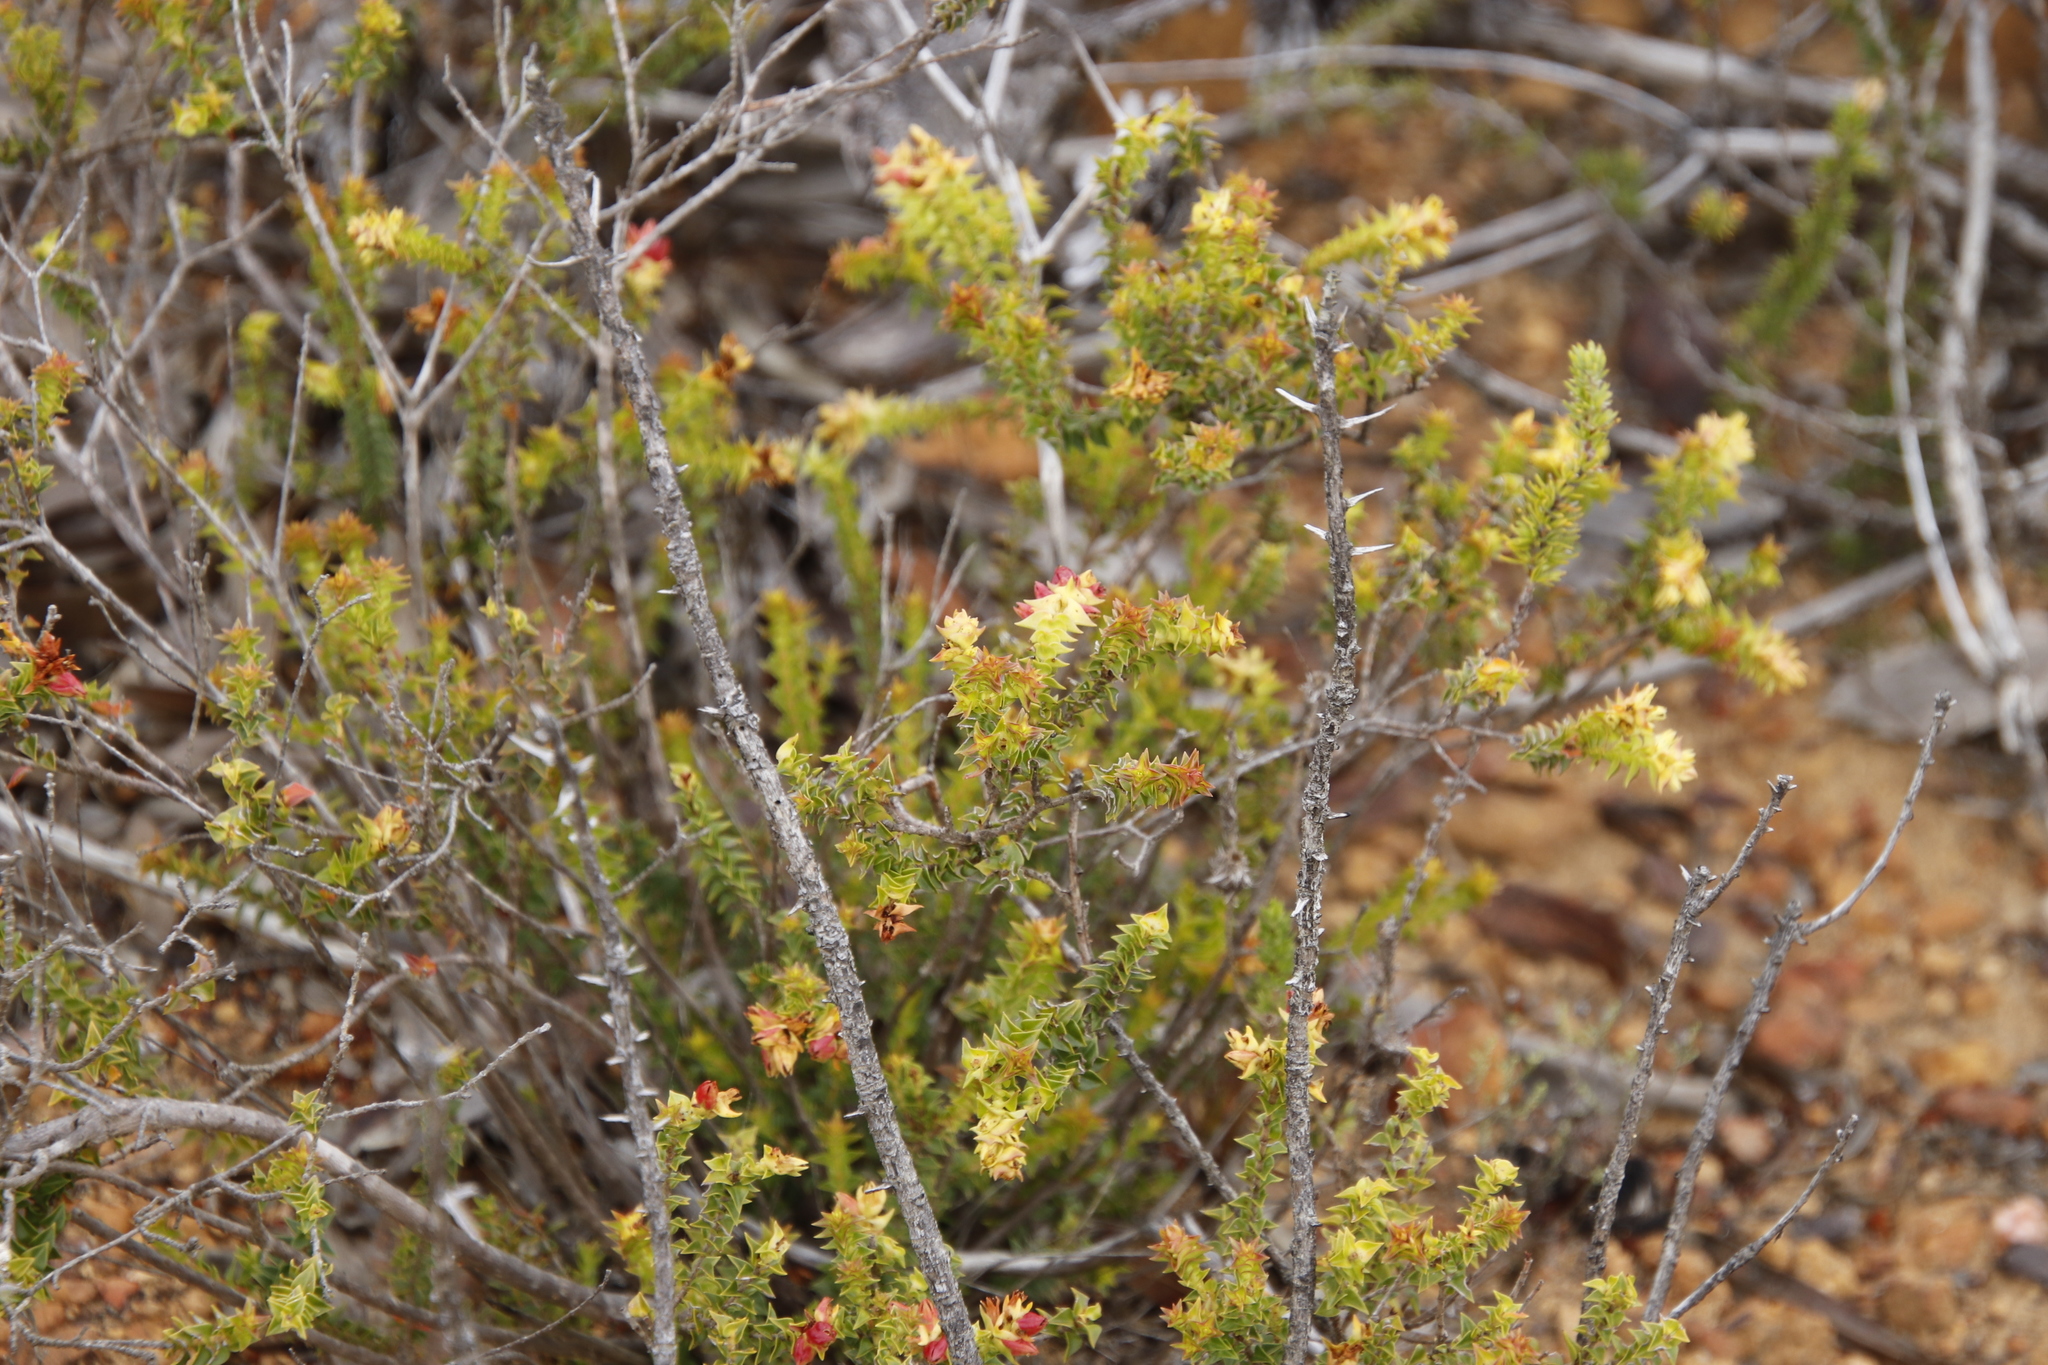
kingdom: Plantae
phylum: Tracheophyta
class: Magnoliopsida
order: Myrtales
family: Penaeaceae
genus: Penaea
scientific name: Penaea mucronata
